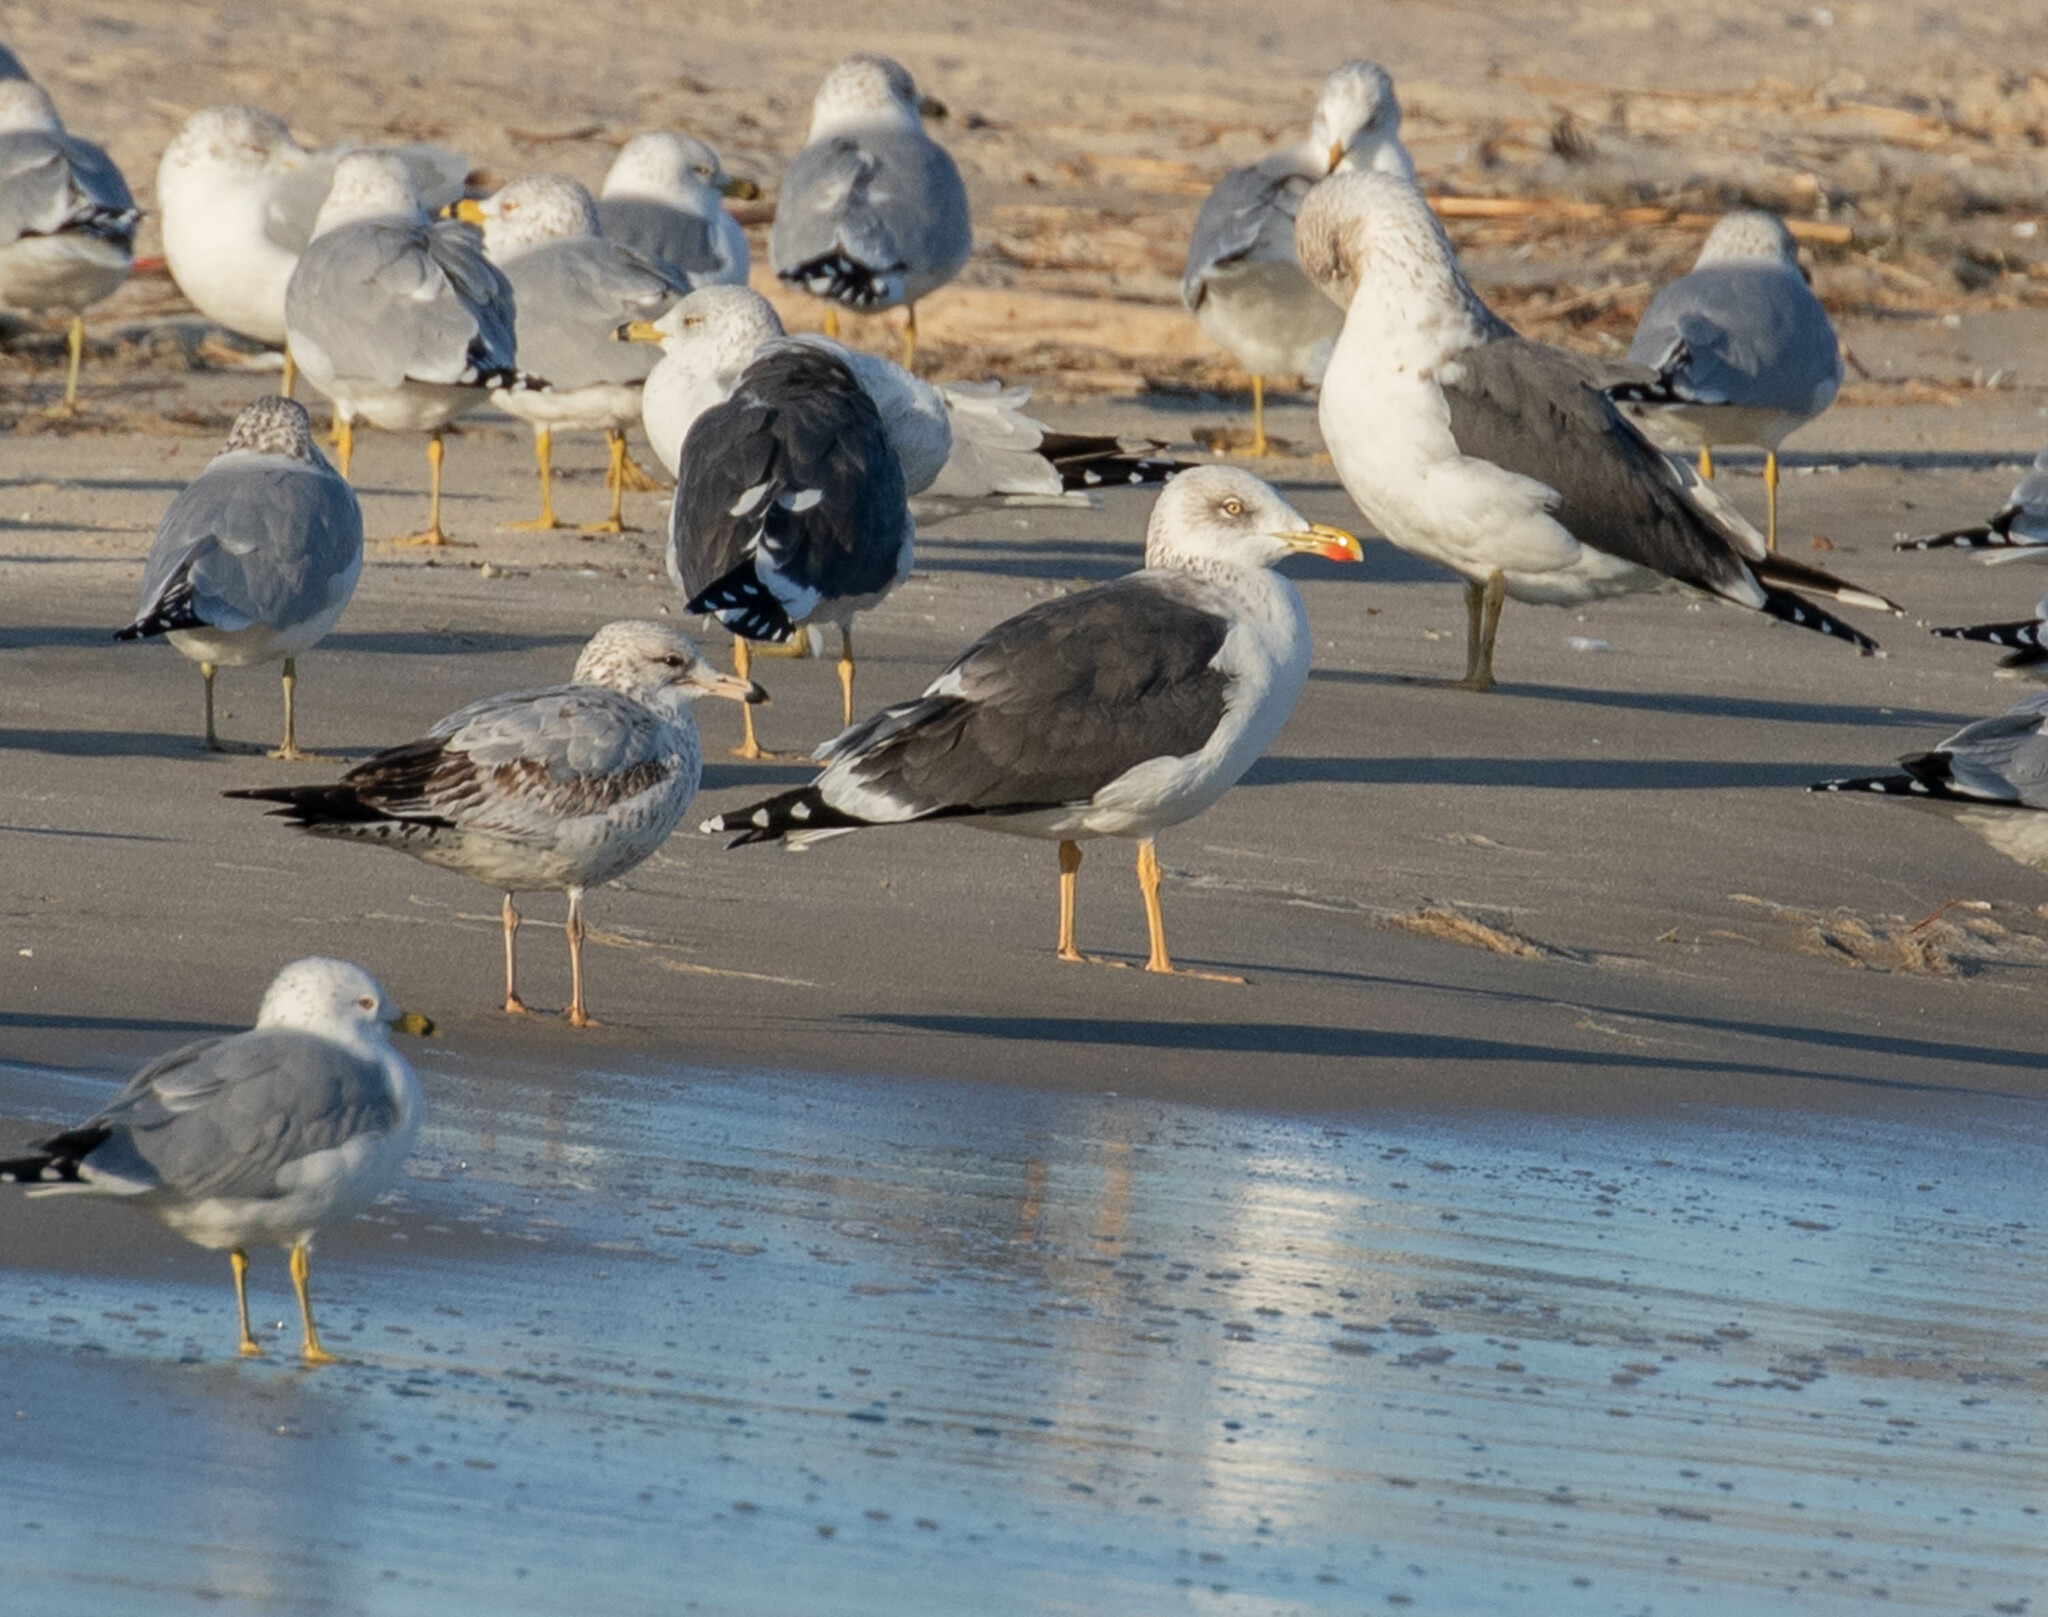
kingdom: Animalia
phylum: Chordata
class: Aves
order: Charadriiformes
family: Laridae
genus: Larus
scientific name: Larus fuscus
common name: Lesser black-backed gull
